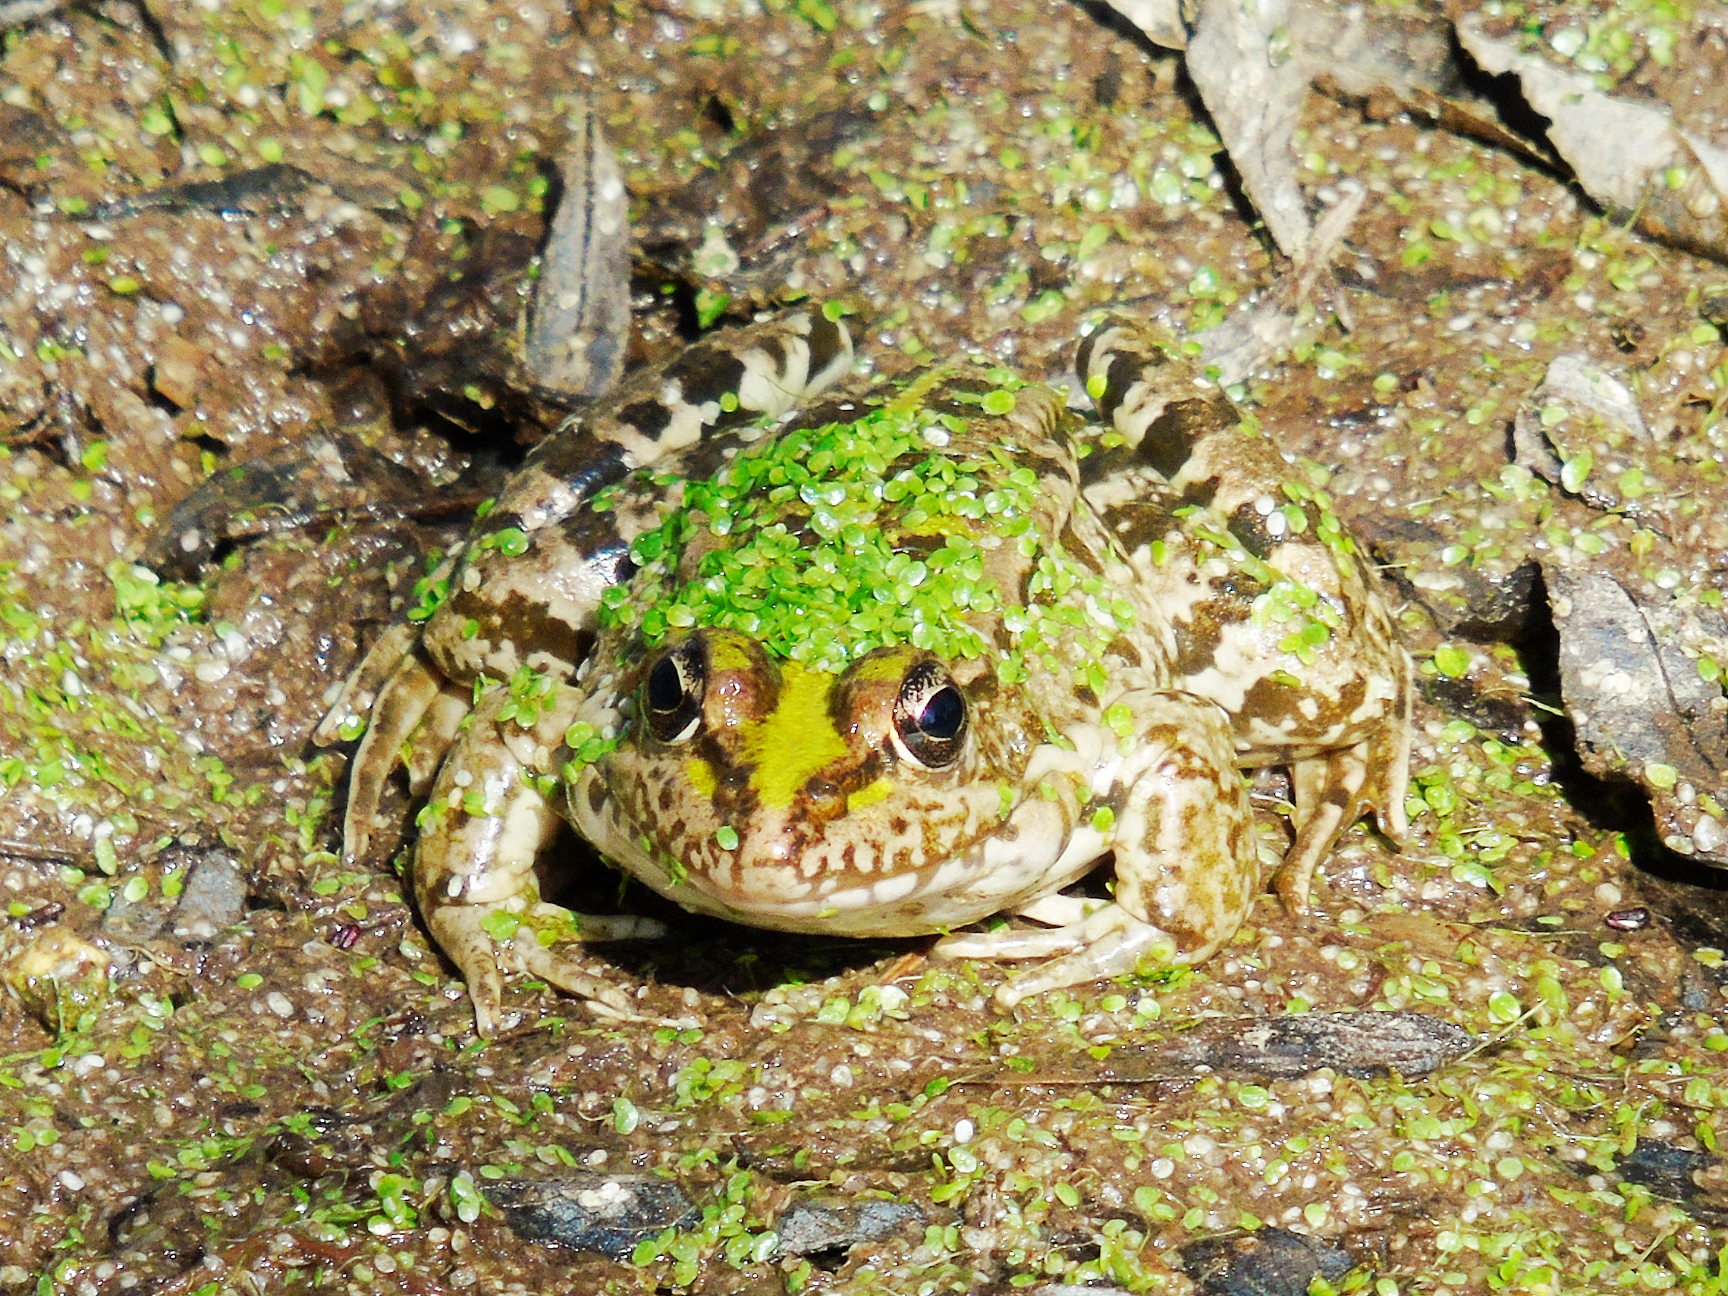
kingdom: Animalia
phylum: Chordata
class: Amphibia
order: Anura
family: Ranidae
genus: Pelophylax
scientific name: Pelophylax ridibundus
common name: Marsh frog
